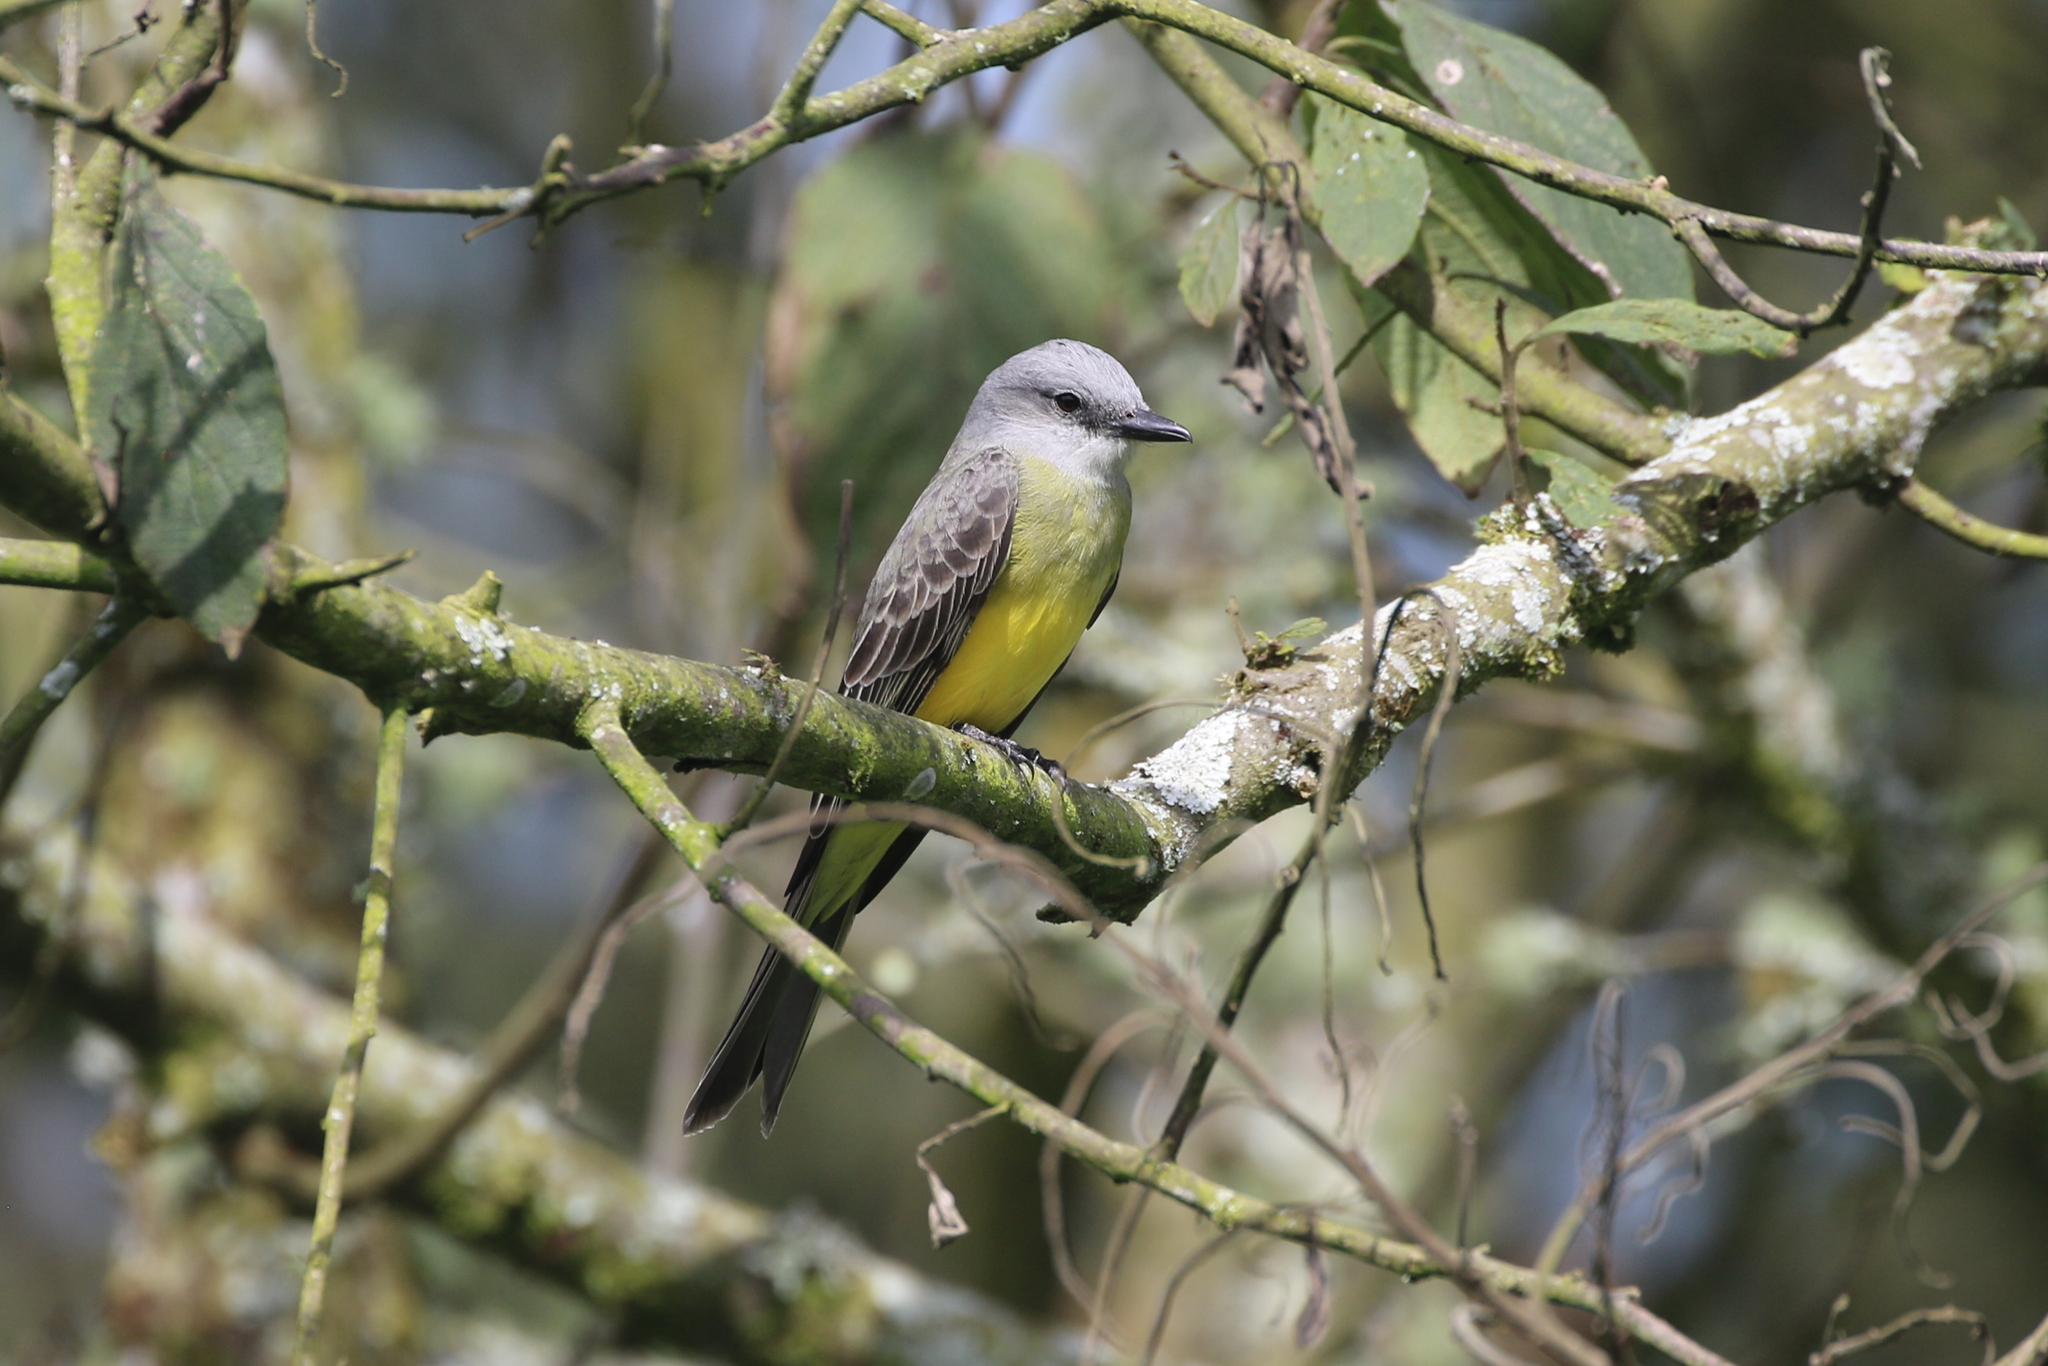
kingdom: Animalia
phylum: Chordata
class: Aves
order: Passeriformes
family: Tyrannidae
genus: Tyrannus
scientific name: Tyrannus melancholicus
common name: Tropical kingbird
